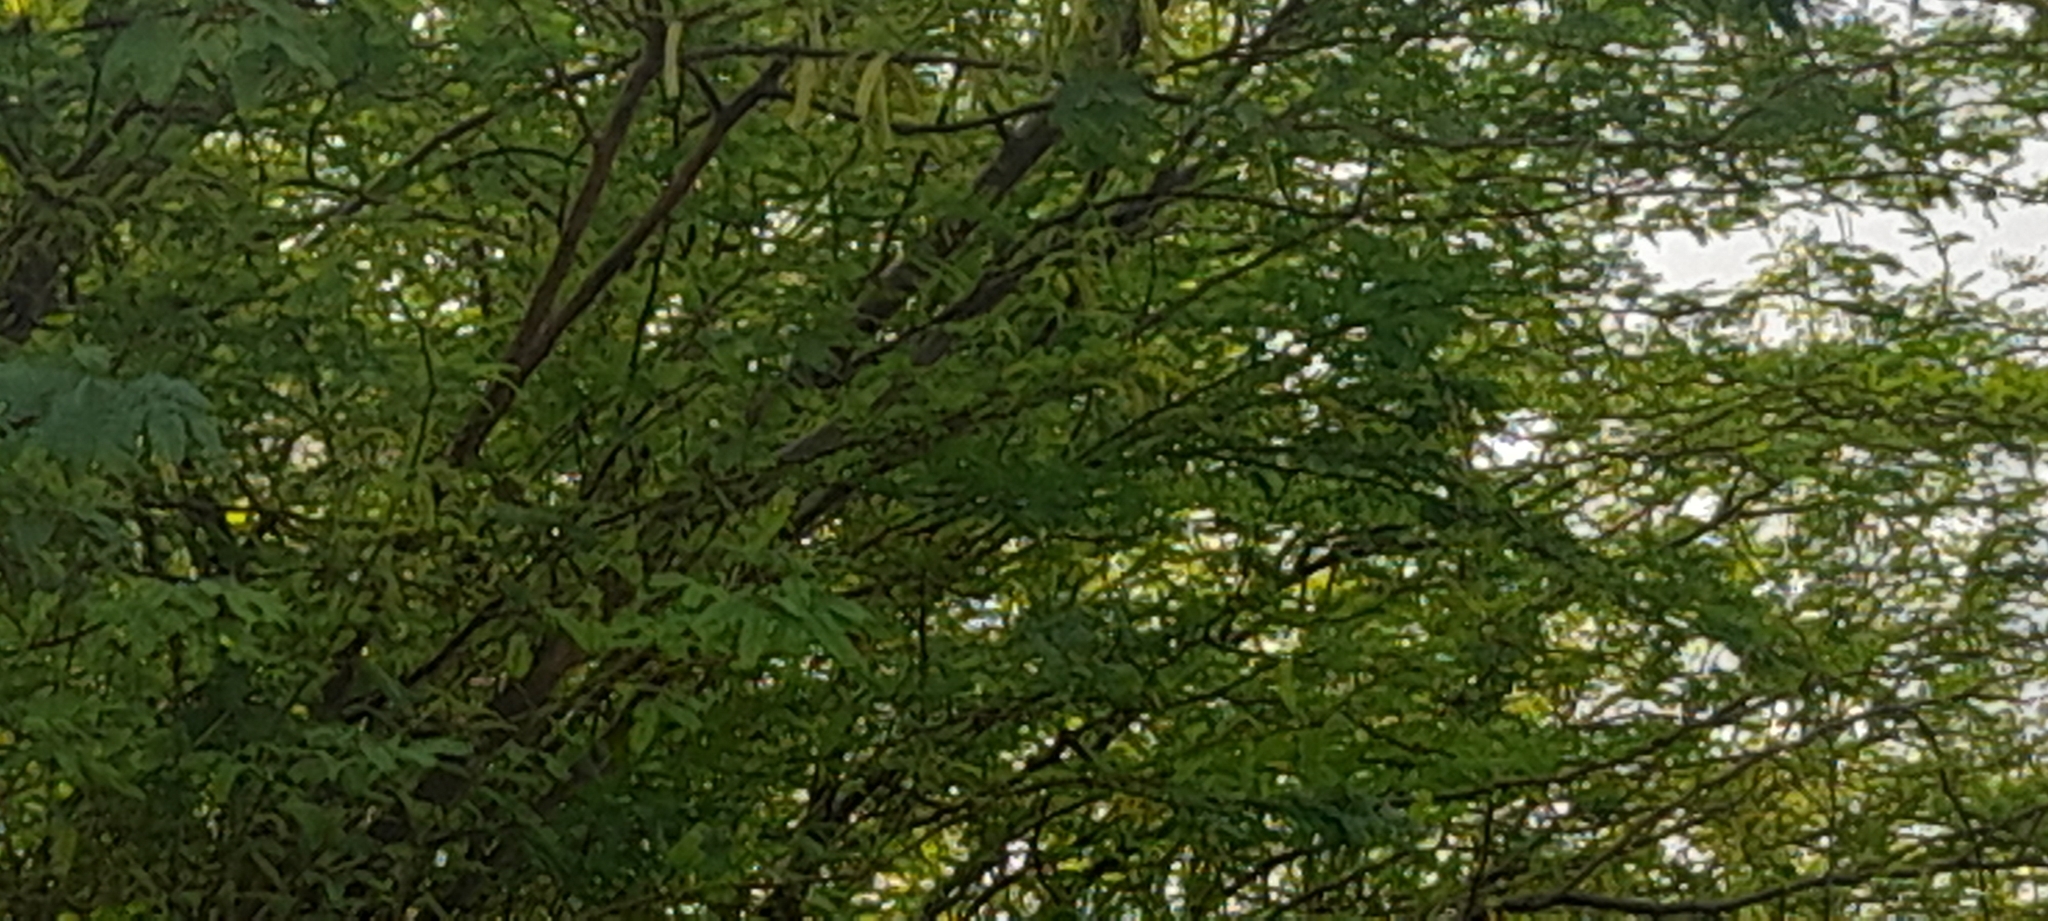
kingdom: Plantae
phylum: Tracheophyta
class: Magnoliopsida
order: Fabales
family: Fabaceae
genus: Prosopis
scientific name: Prosopis juliflora
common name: Mesquite
